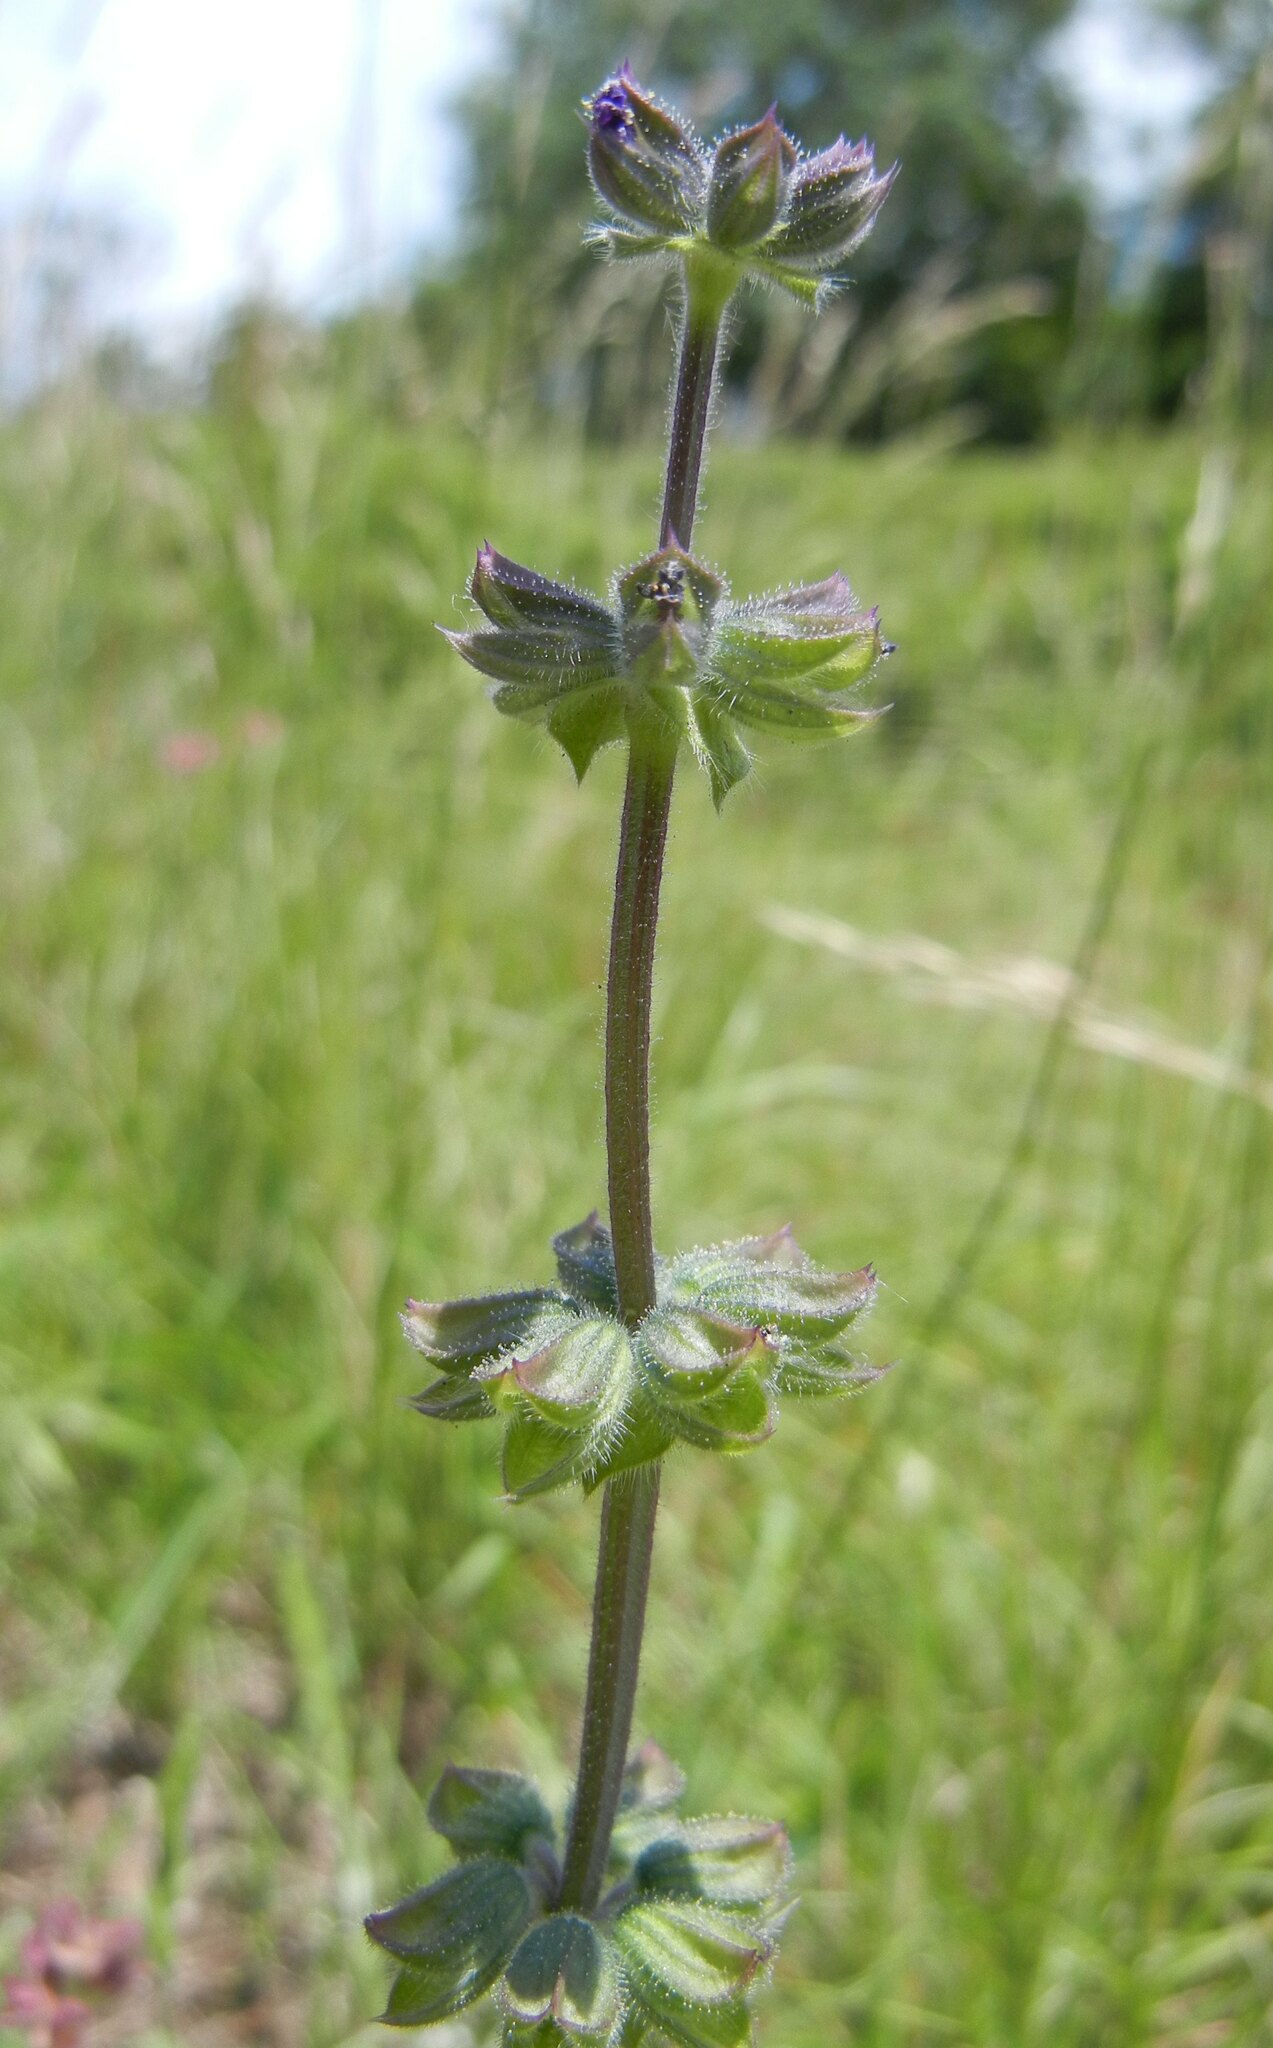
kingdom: Plantae
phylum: Tracheophyta
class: Magnoliopsida
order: Lamiales
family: Lamiaceae
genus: Salvia
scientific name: Salvia verbenaca
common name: Wild clary
